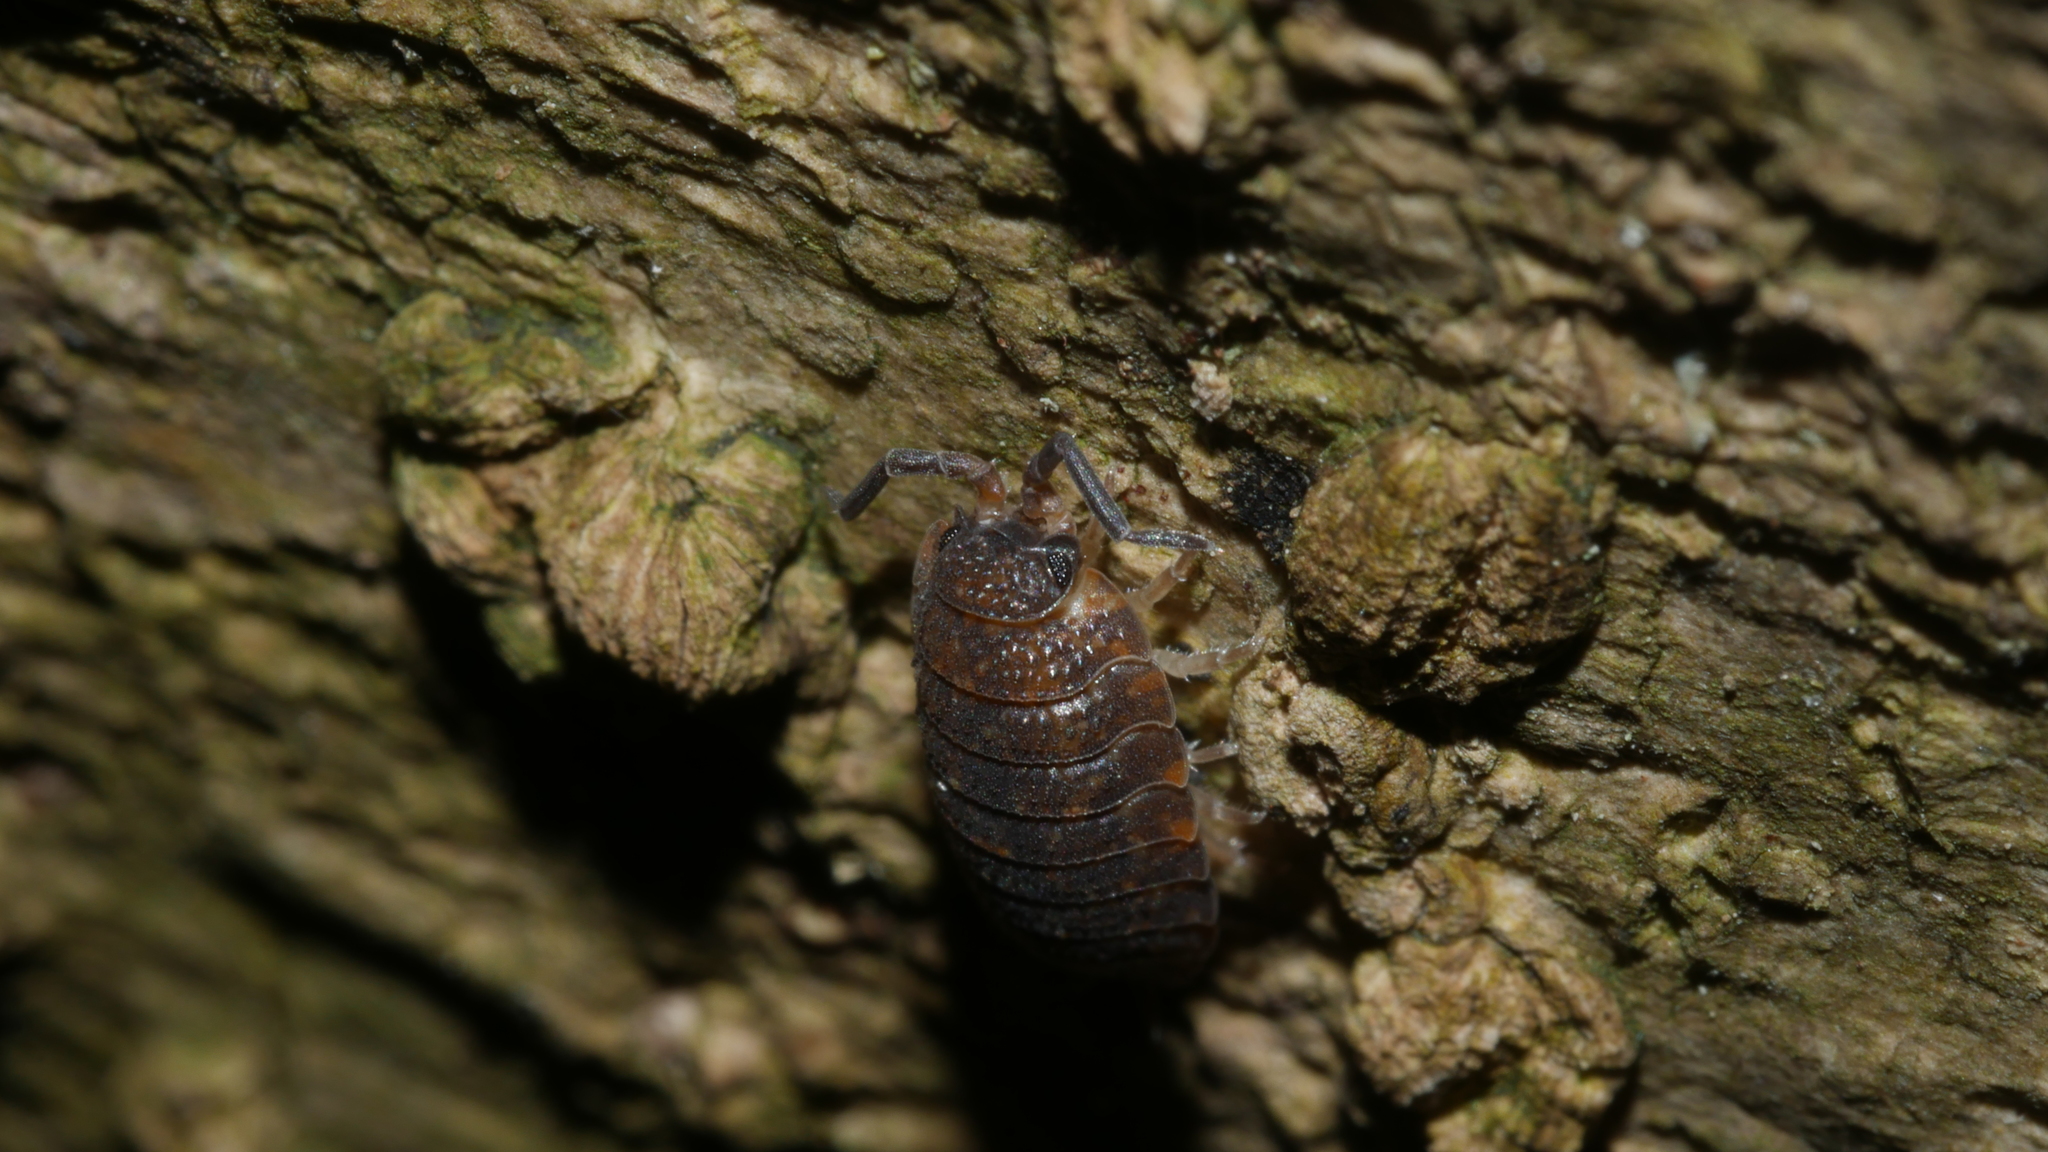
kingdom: Animalia
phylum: Arthropoda
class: Malacostraca
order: Isopoda
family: Porcellionidae
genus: Porcellio
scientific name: Porcellio scaber
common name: Common rough woodlouse
